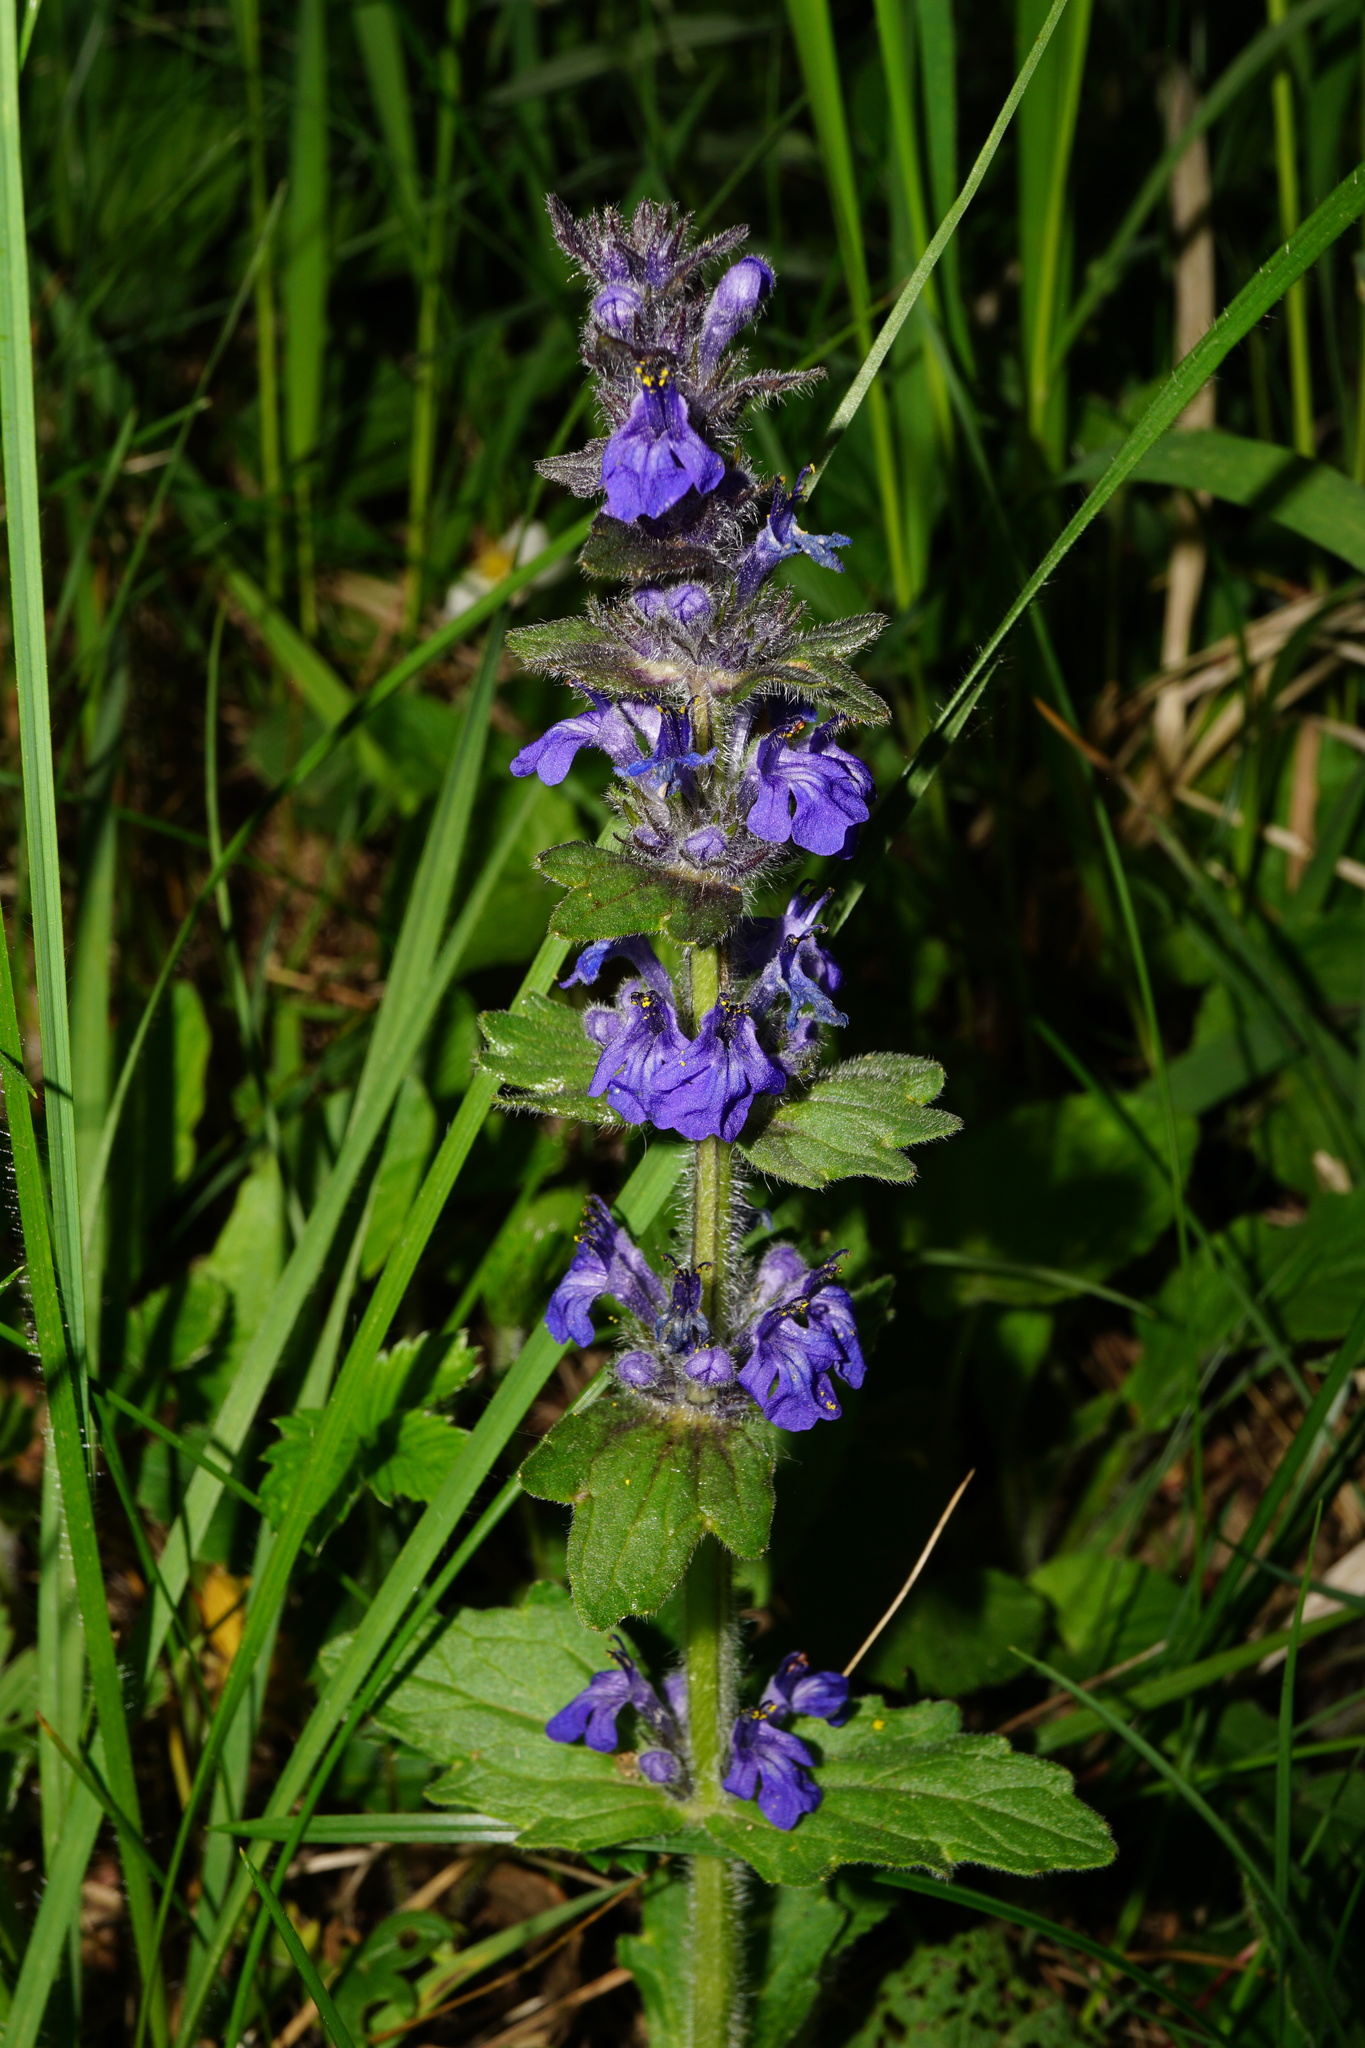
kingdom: Plantae
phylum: Tracheophyta
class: Magnoliopsida
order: Lamiales
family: Lamiaceae
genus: Ajuga
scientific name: Ajuga genevensis
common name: Blue bugle
